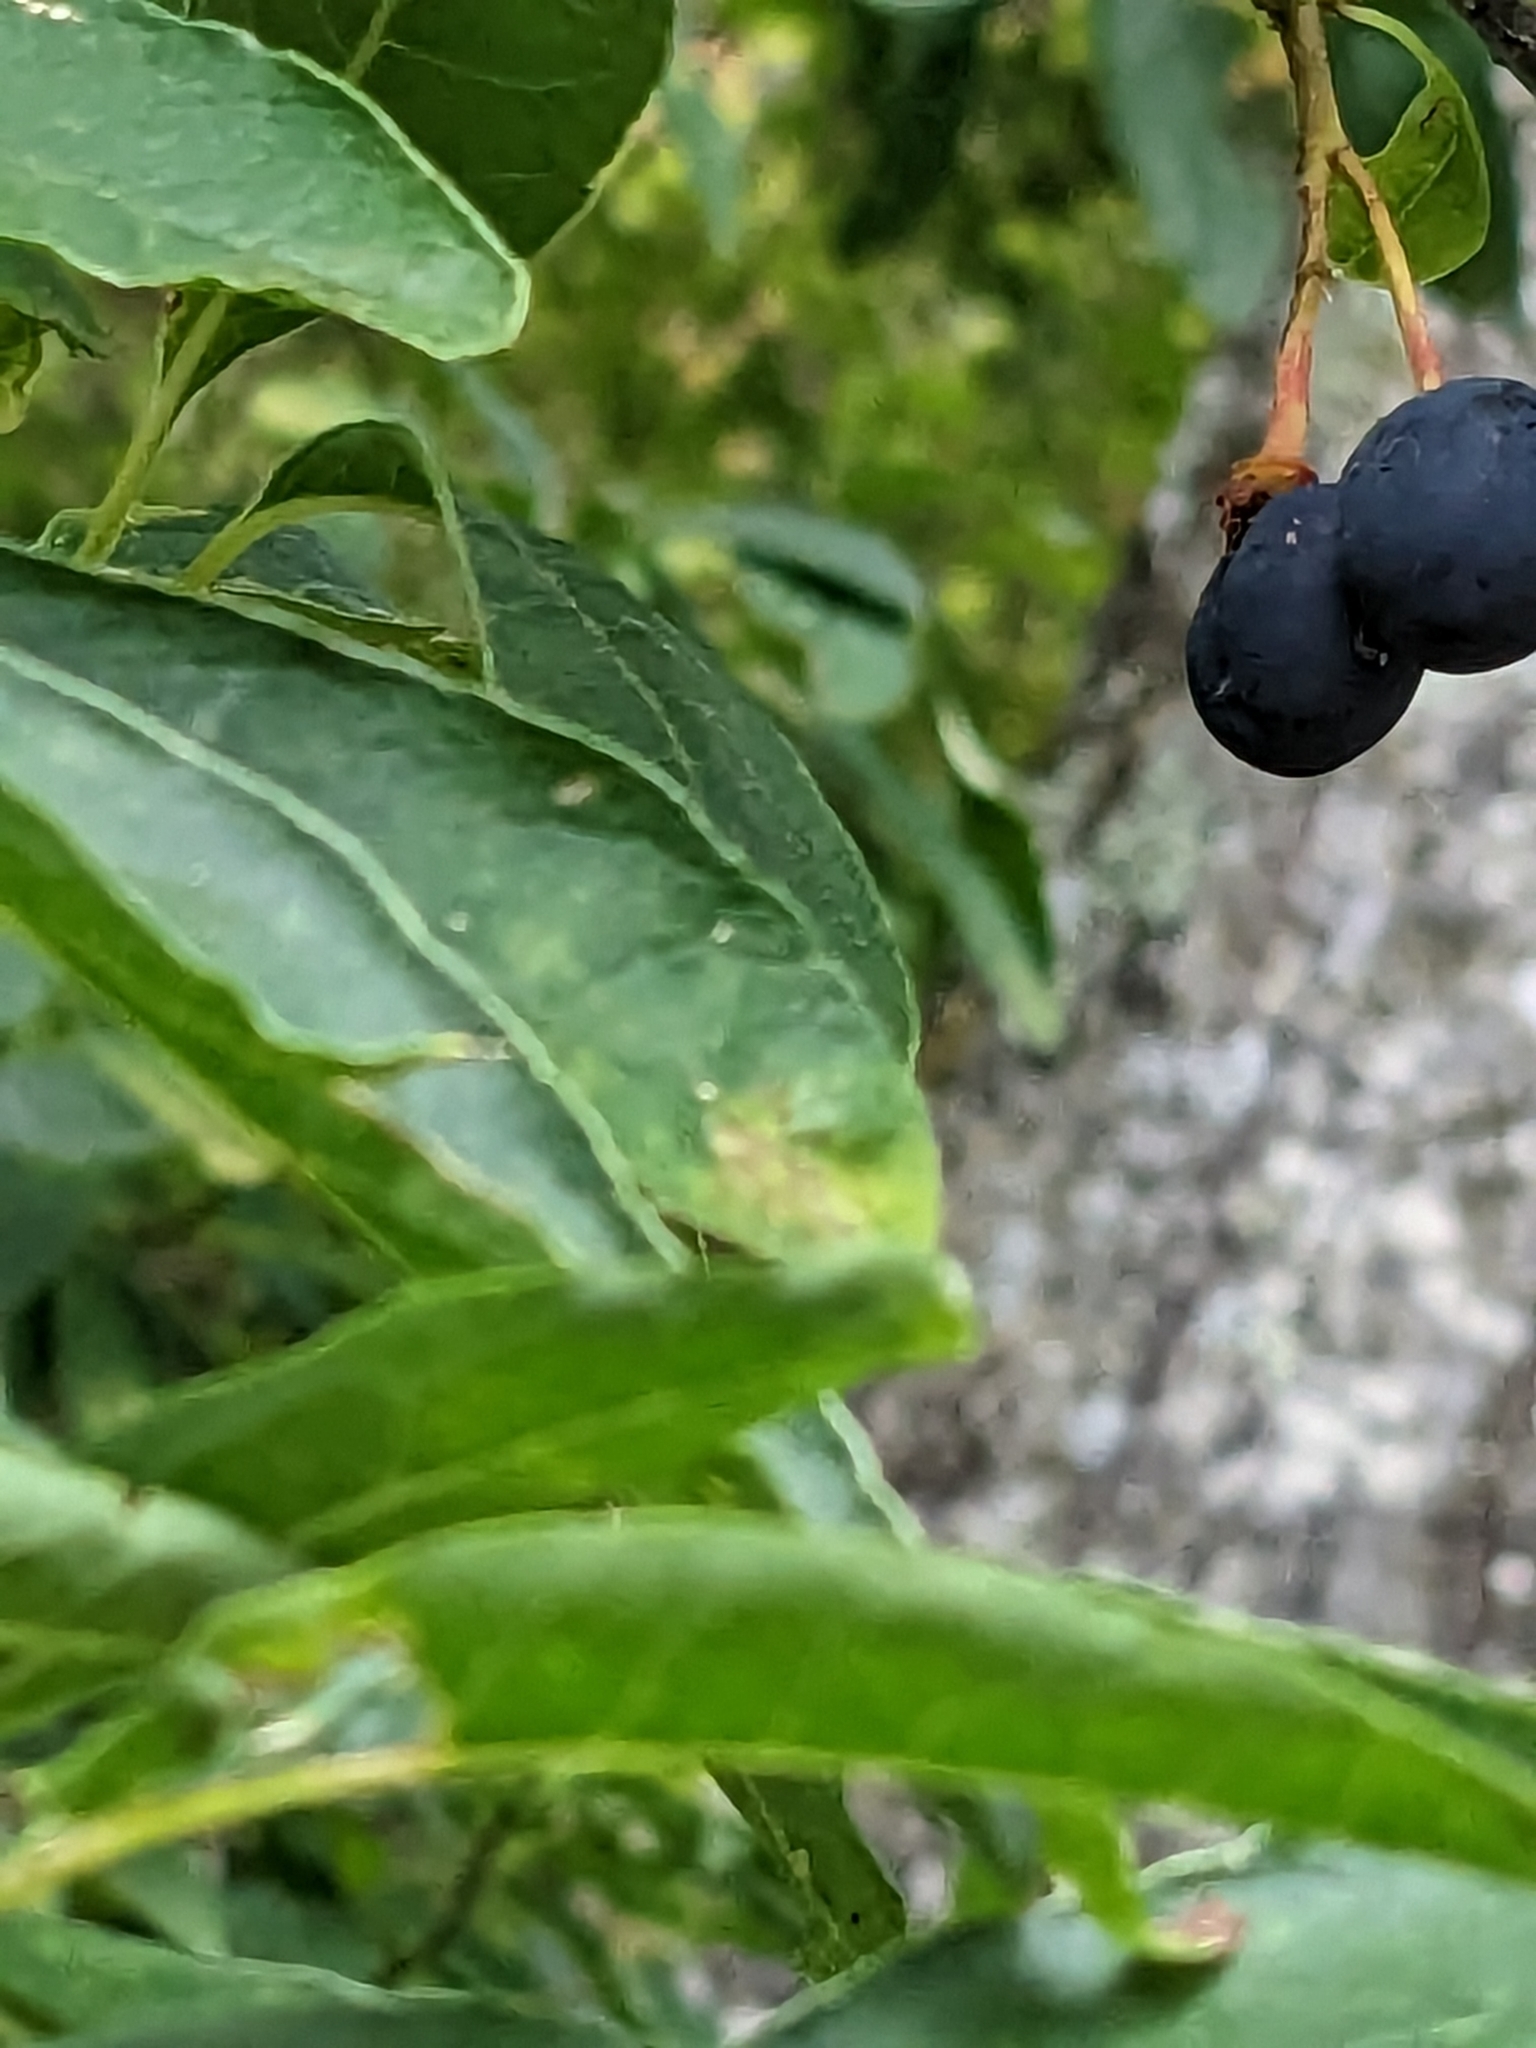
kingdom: Plantae
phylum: Tracheophyta
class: Magnoliopsida
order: Rosales
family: Rosaceae
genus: Oemleria
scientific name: Oemleria cerasiformis
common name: Osoberry
